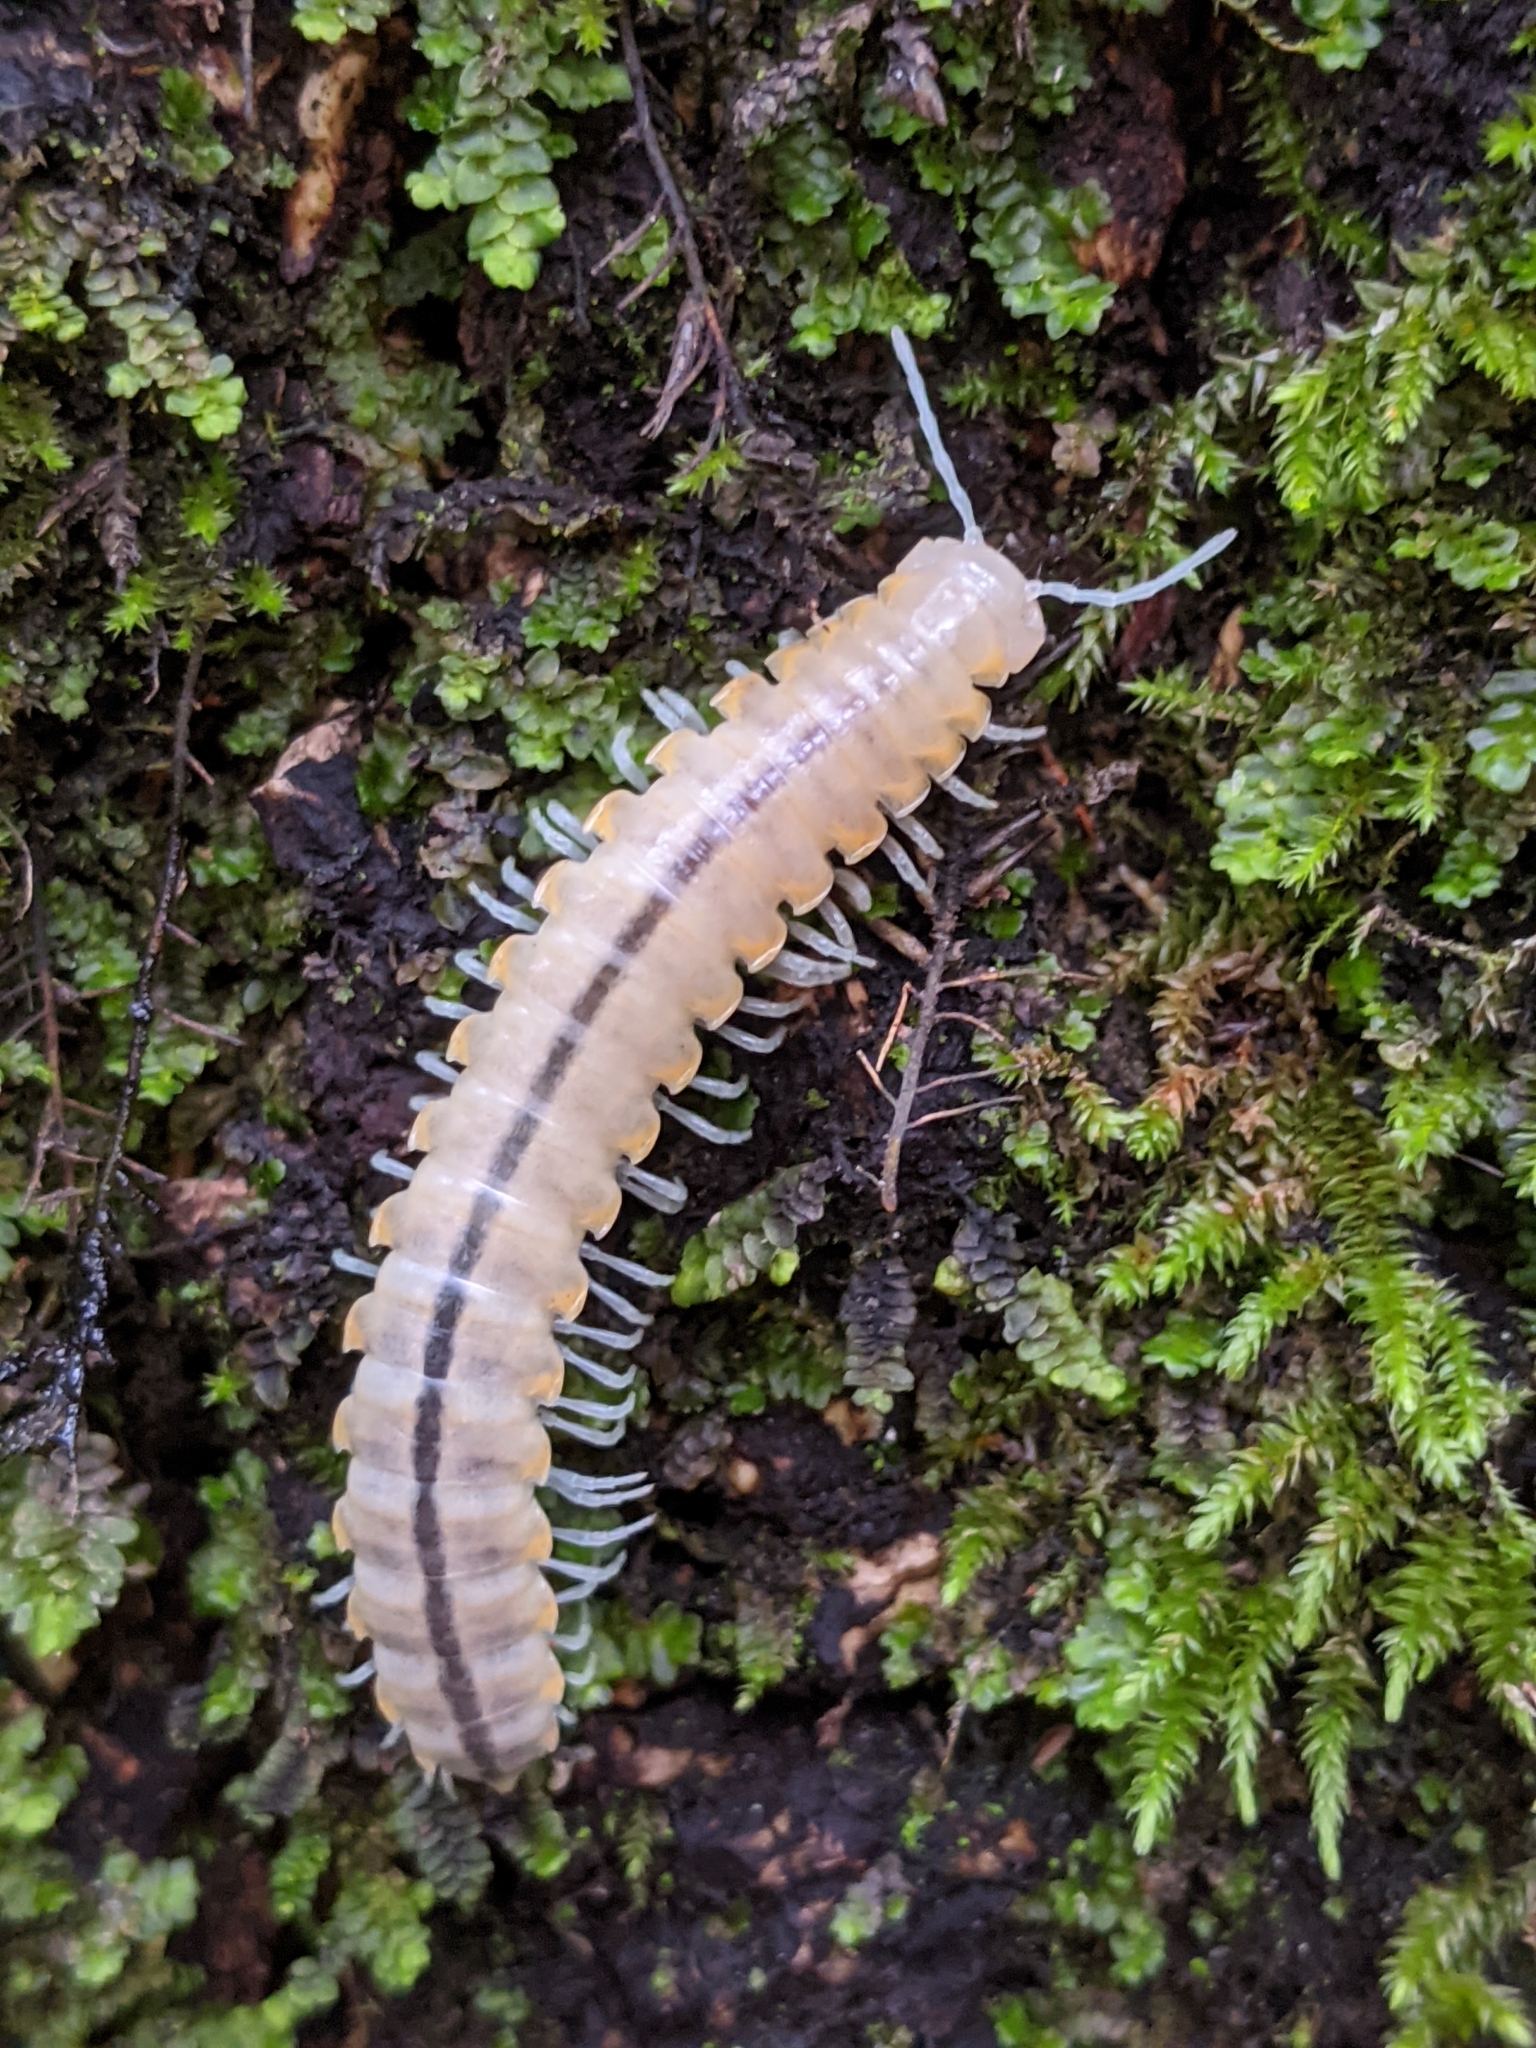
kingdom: Animalia
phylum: Arthropoda
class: Diplopoda
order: Polydesmida
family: Xystodesmidae
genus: Xystocheir
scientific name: Xystocheir dissecta
